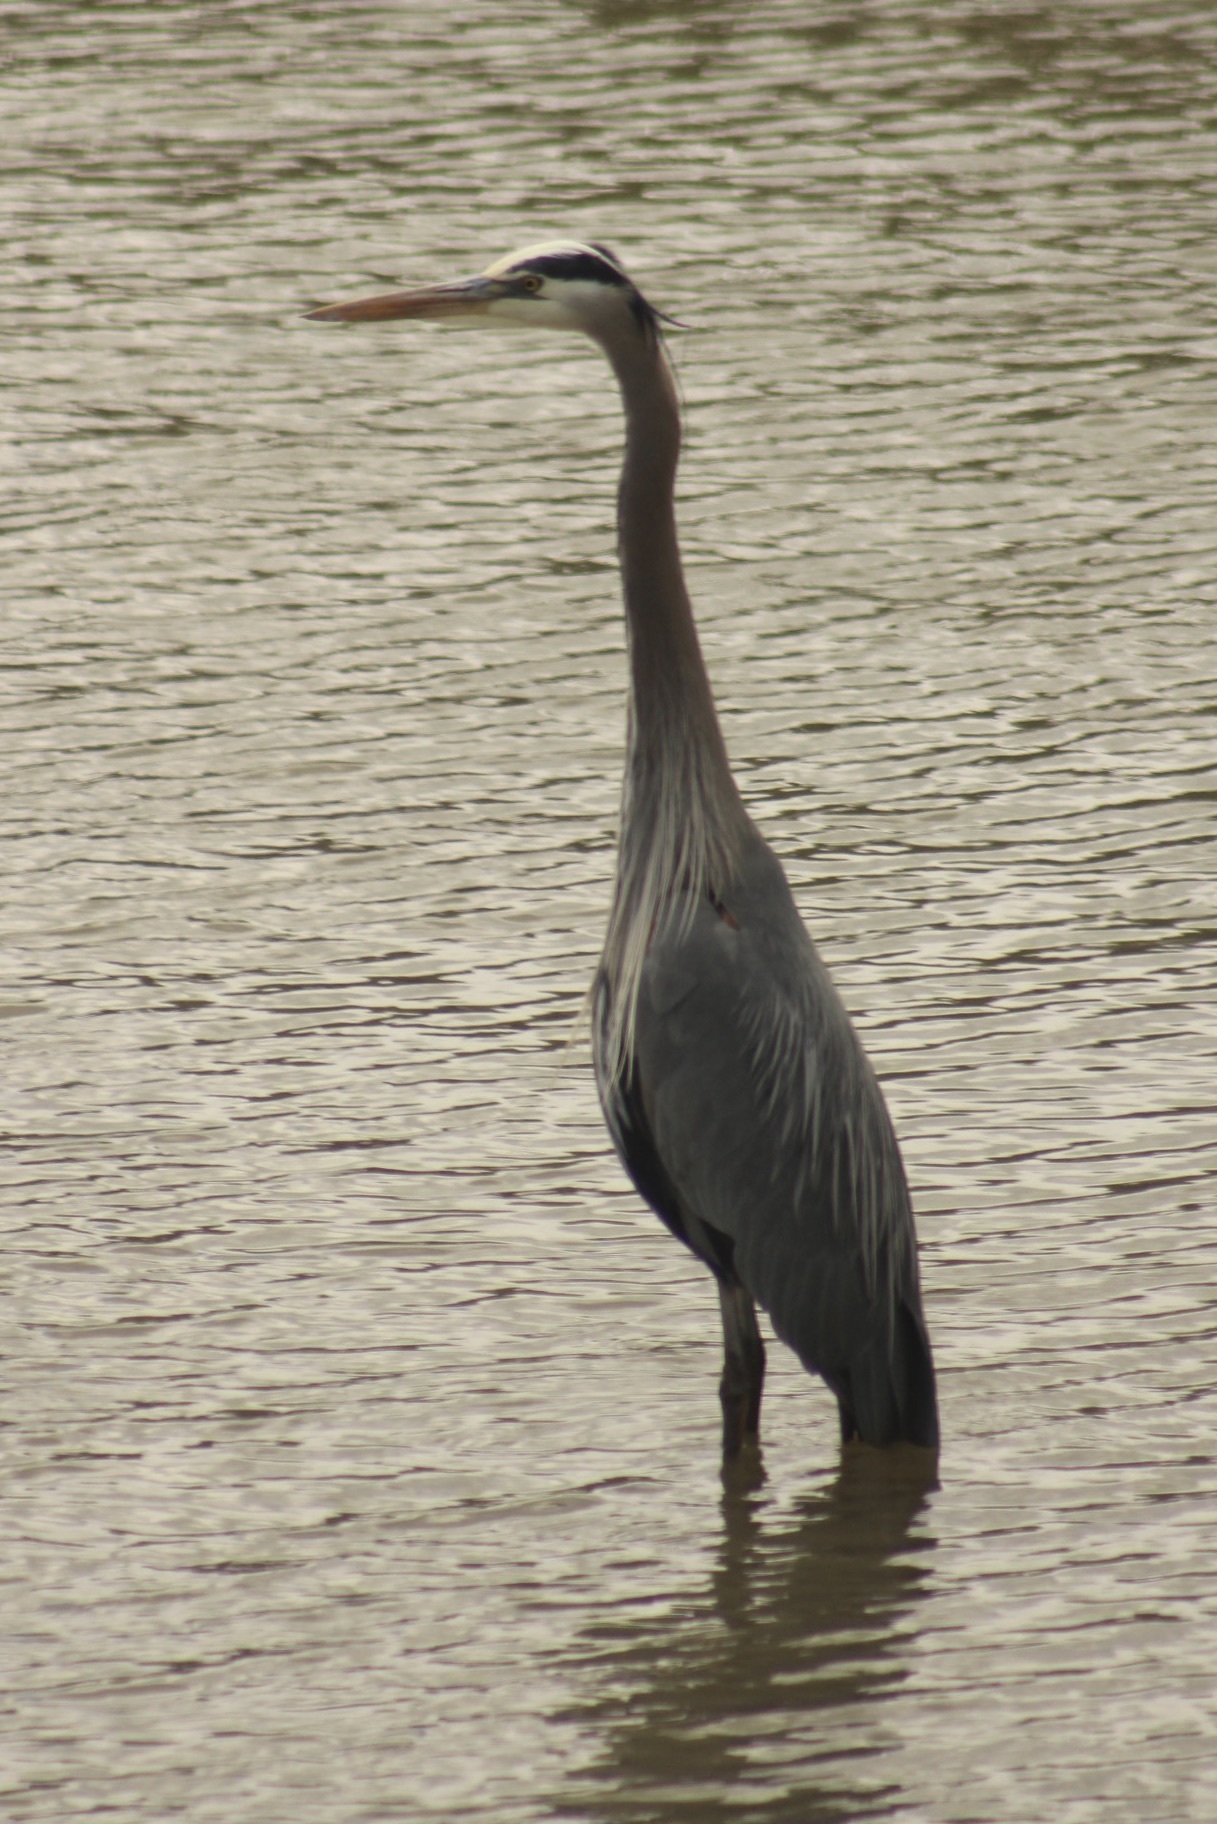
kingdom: Animalia
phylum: Chordata
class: Aves
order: Pelecaniformes
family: Ardeidae
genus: Ardea
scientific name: Ardea herodias
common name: Great blue heron
